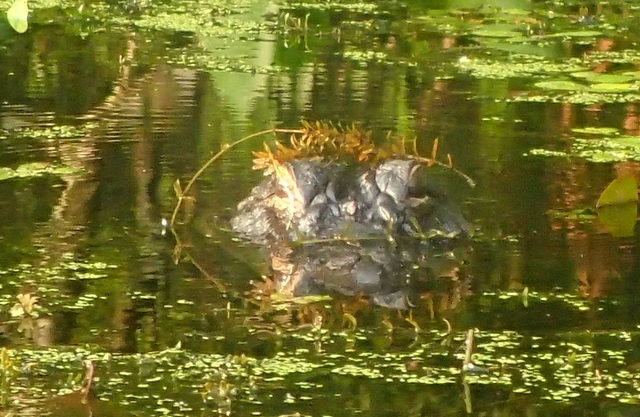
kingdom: Animalia
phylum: Chordata
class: Crocodylia
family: Alligatoridae
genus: Alligator
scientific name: Alligator mississippiensis
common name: American alligator
